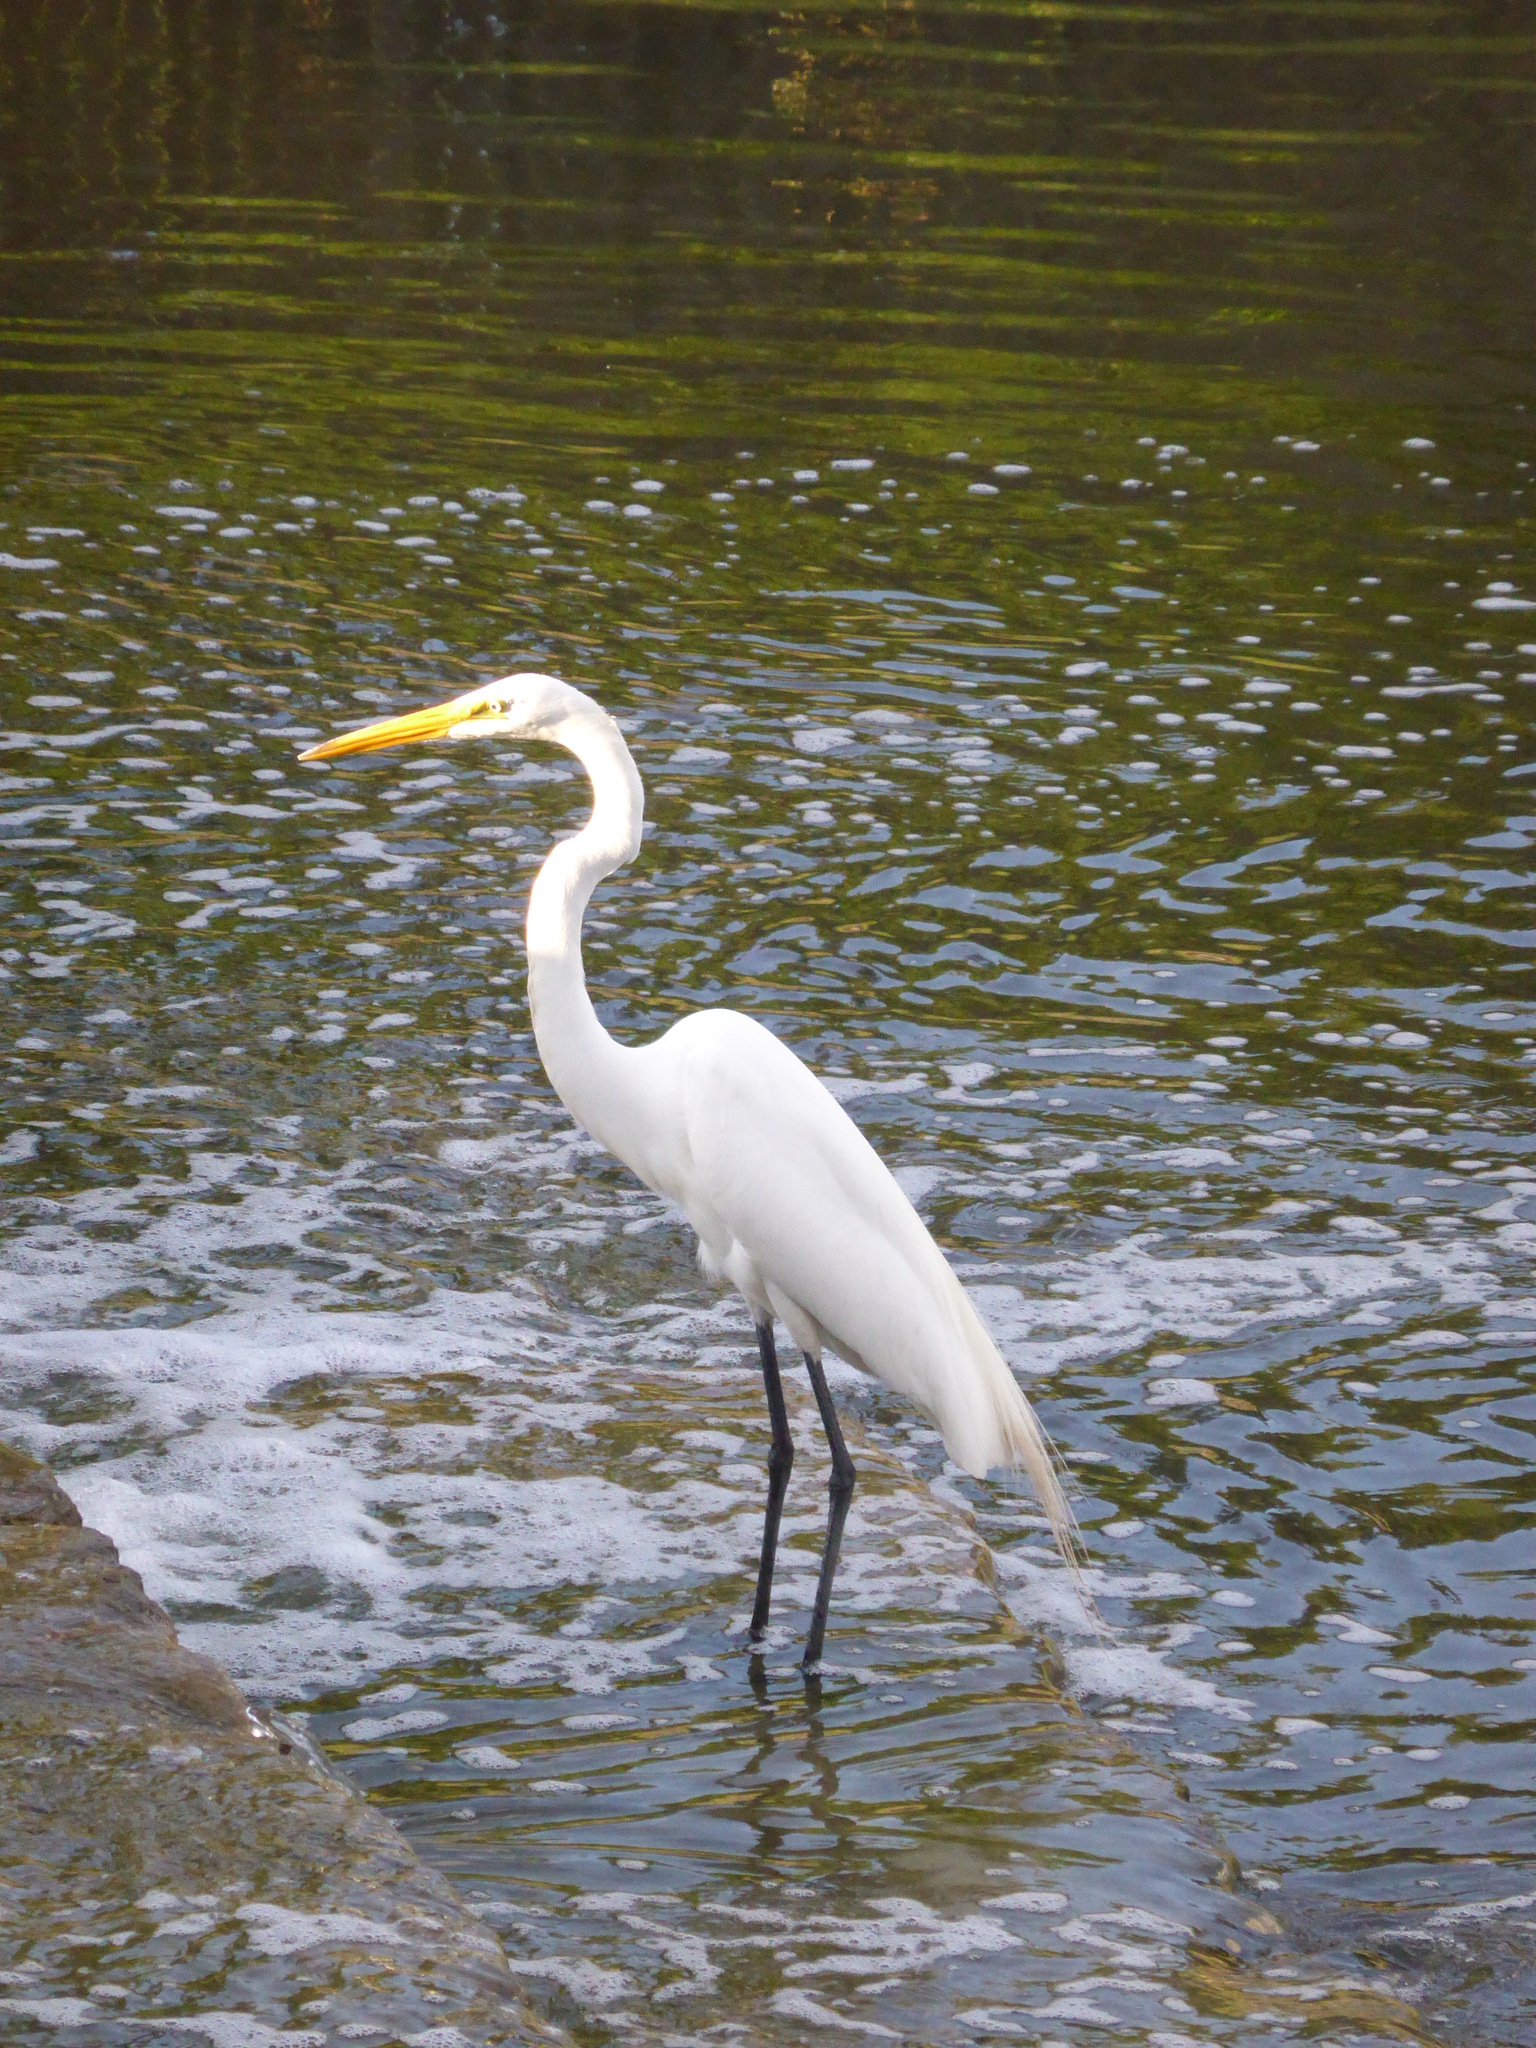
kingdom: Animalia
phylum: Chordata
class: Aves
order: Pelecaniformes
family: Ardeidae
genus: Ardea
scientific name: Ardea alba
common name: Great egret
